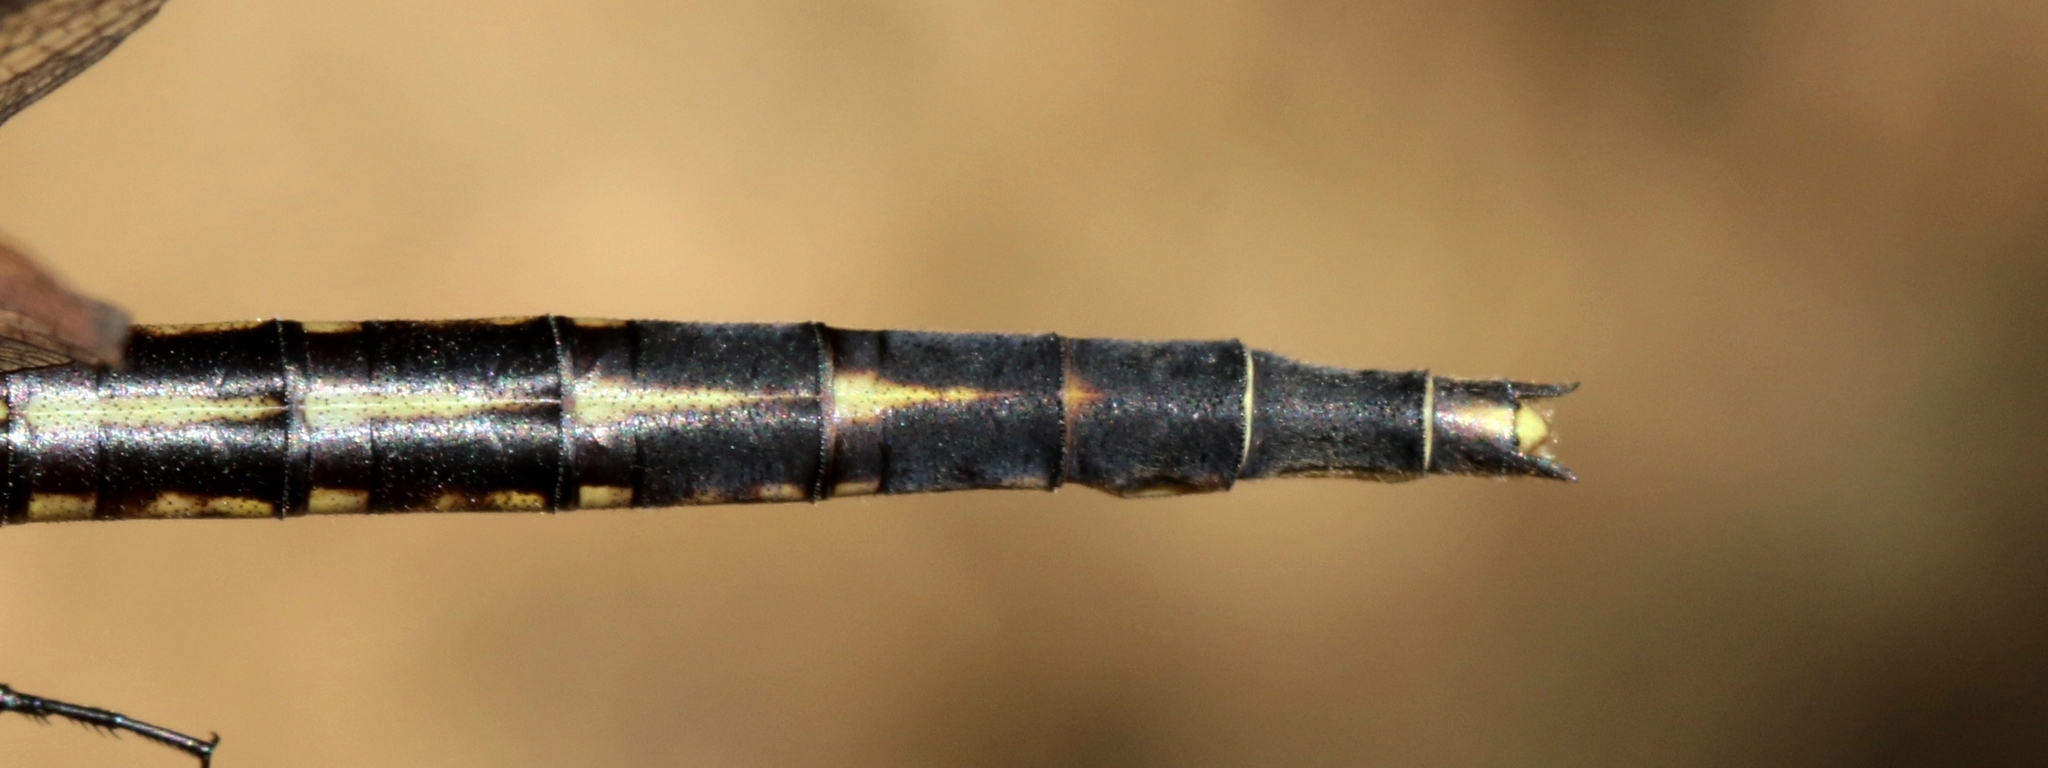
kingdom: Animalia
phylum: Arthropoda
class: Insecta
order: Odonata
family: Gomphidae
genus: Phanogomphus
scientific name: Phanogomphus spicatus
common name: Dusky clubtail
